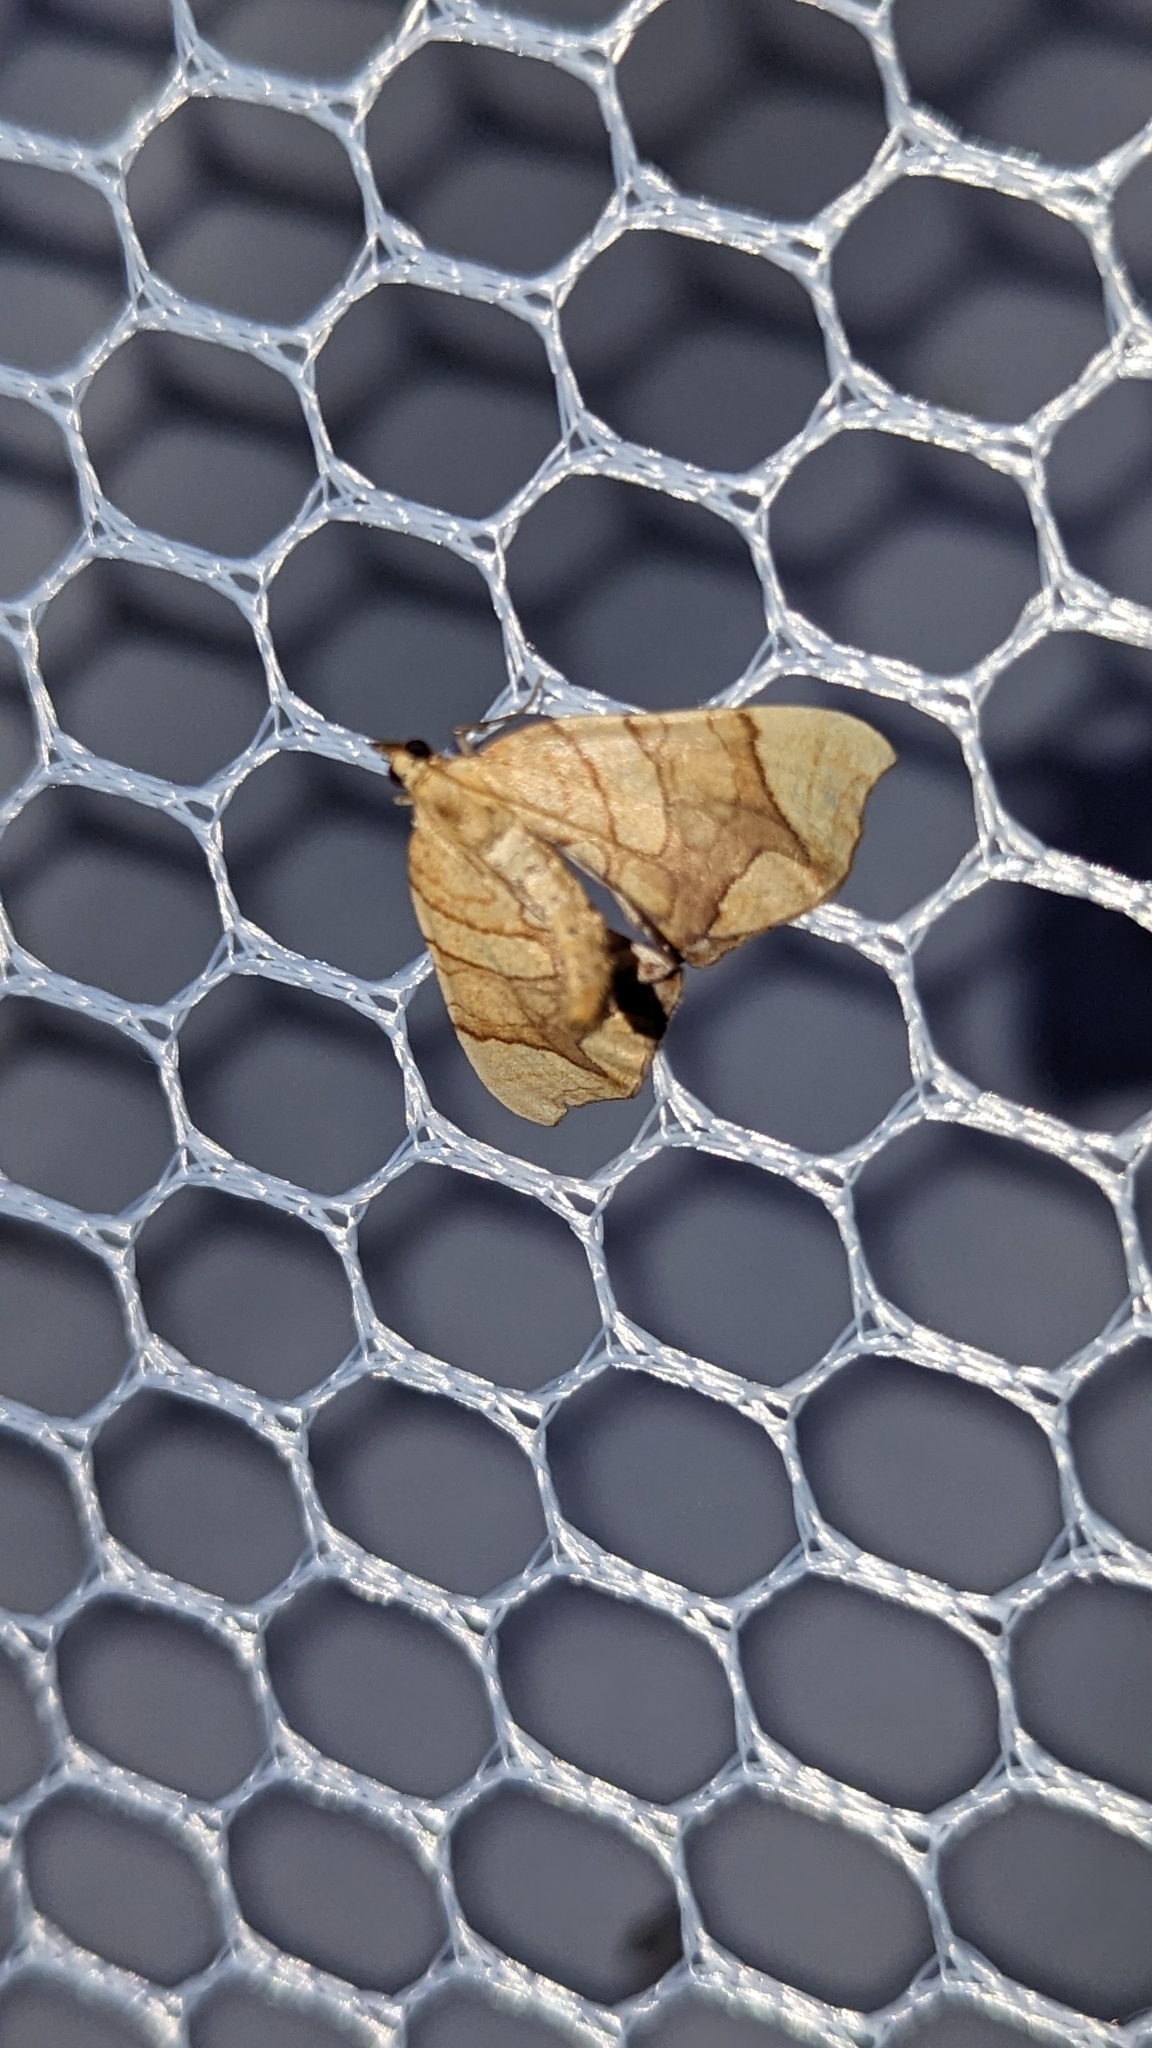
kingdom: Animalia
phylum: Arthropoda
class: Insecta
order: Lepidoptera
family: Geometridae
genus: Eulithis
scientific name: Eulithis
